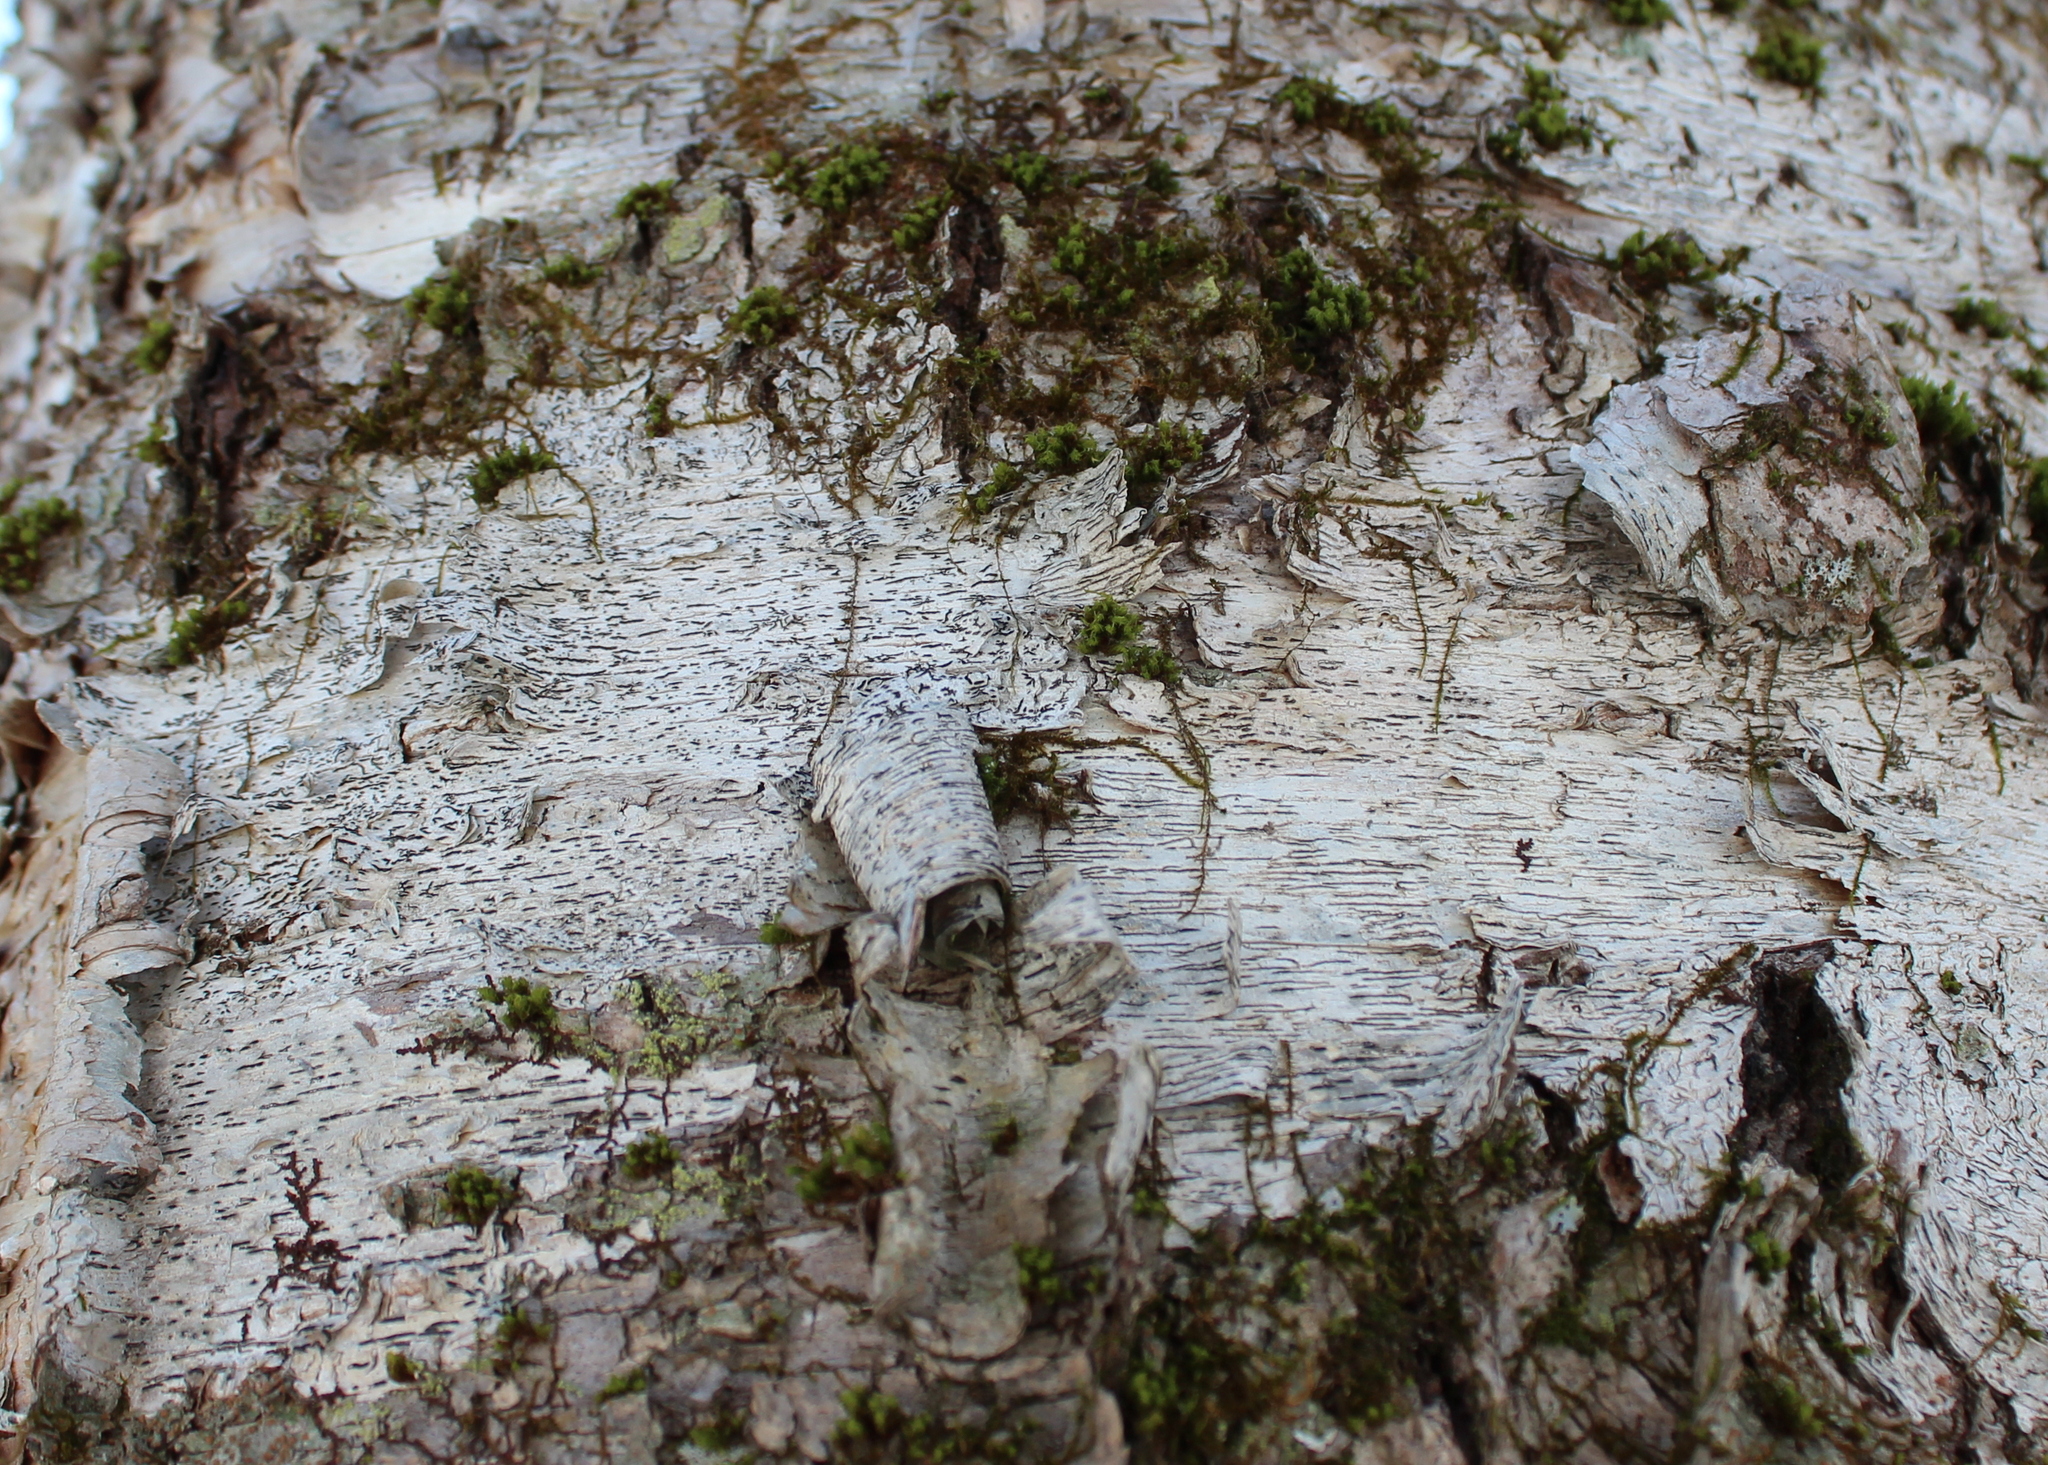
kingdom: Fungi
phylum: Ascomycota
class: Lecanoromycetes
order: Ostropales
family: Graphidaceae
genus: Graphis
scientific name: Graphis scripta
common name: Script lichen
